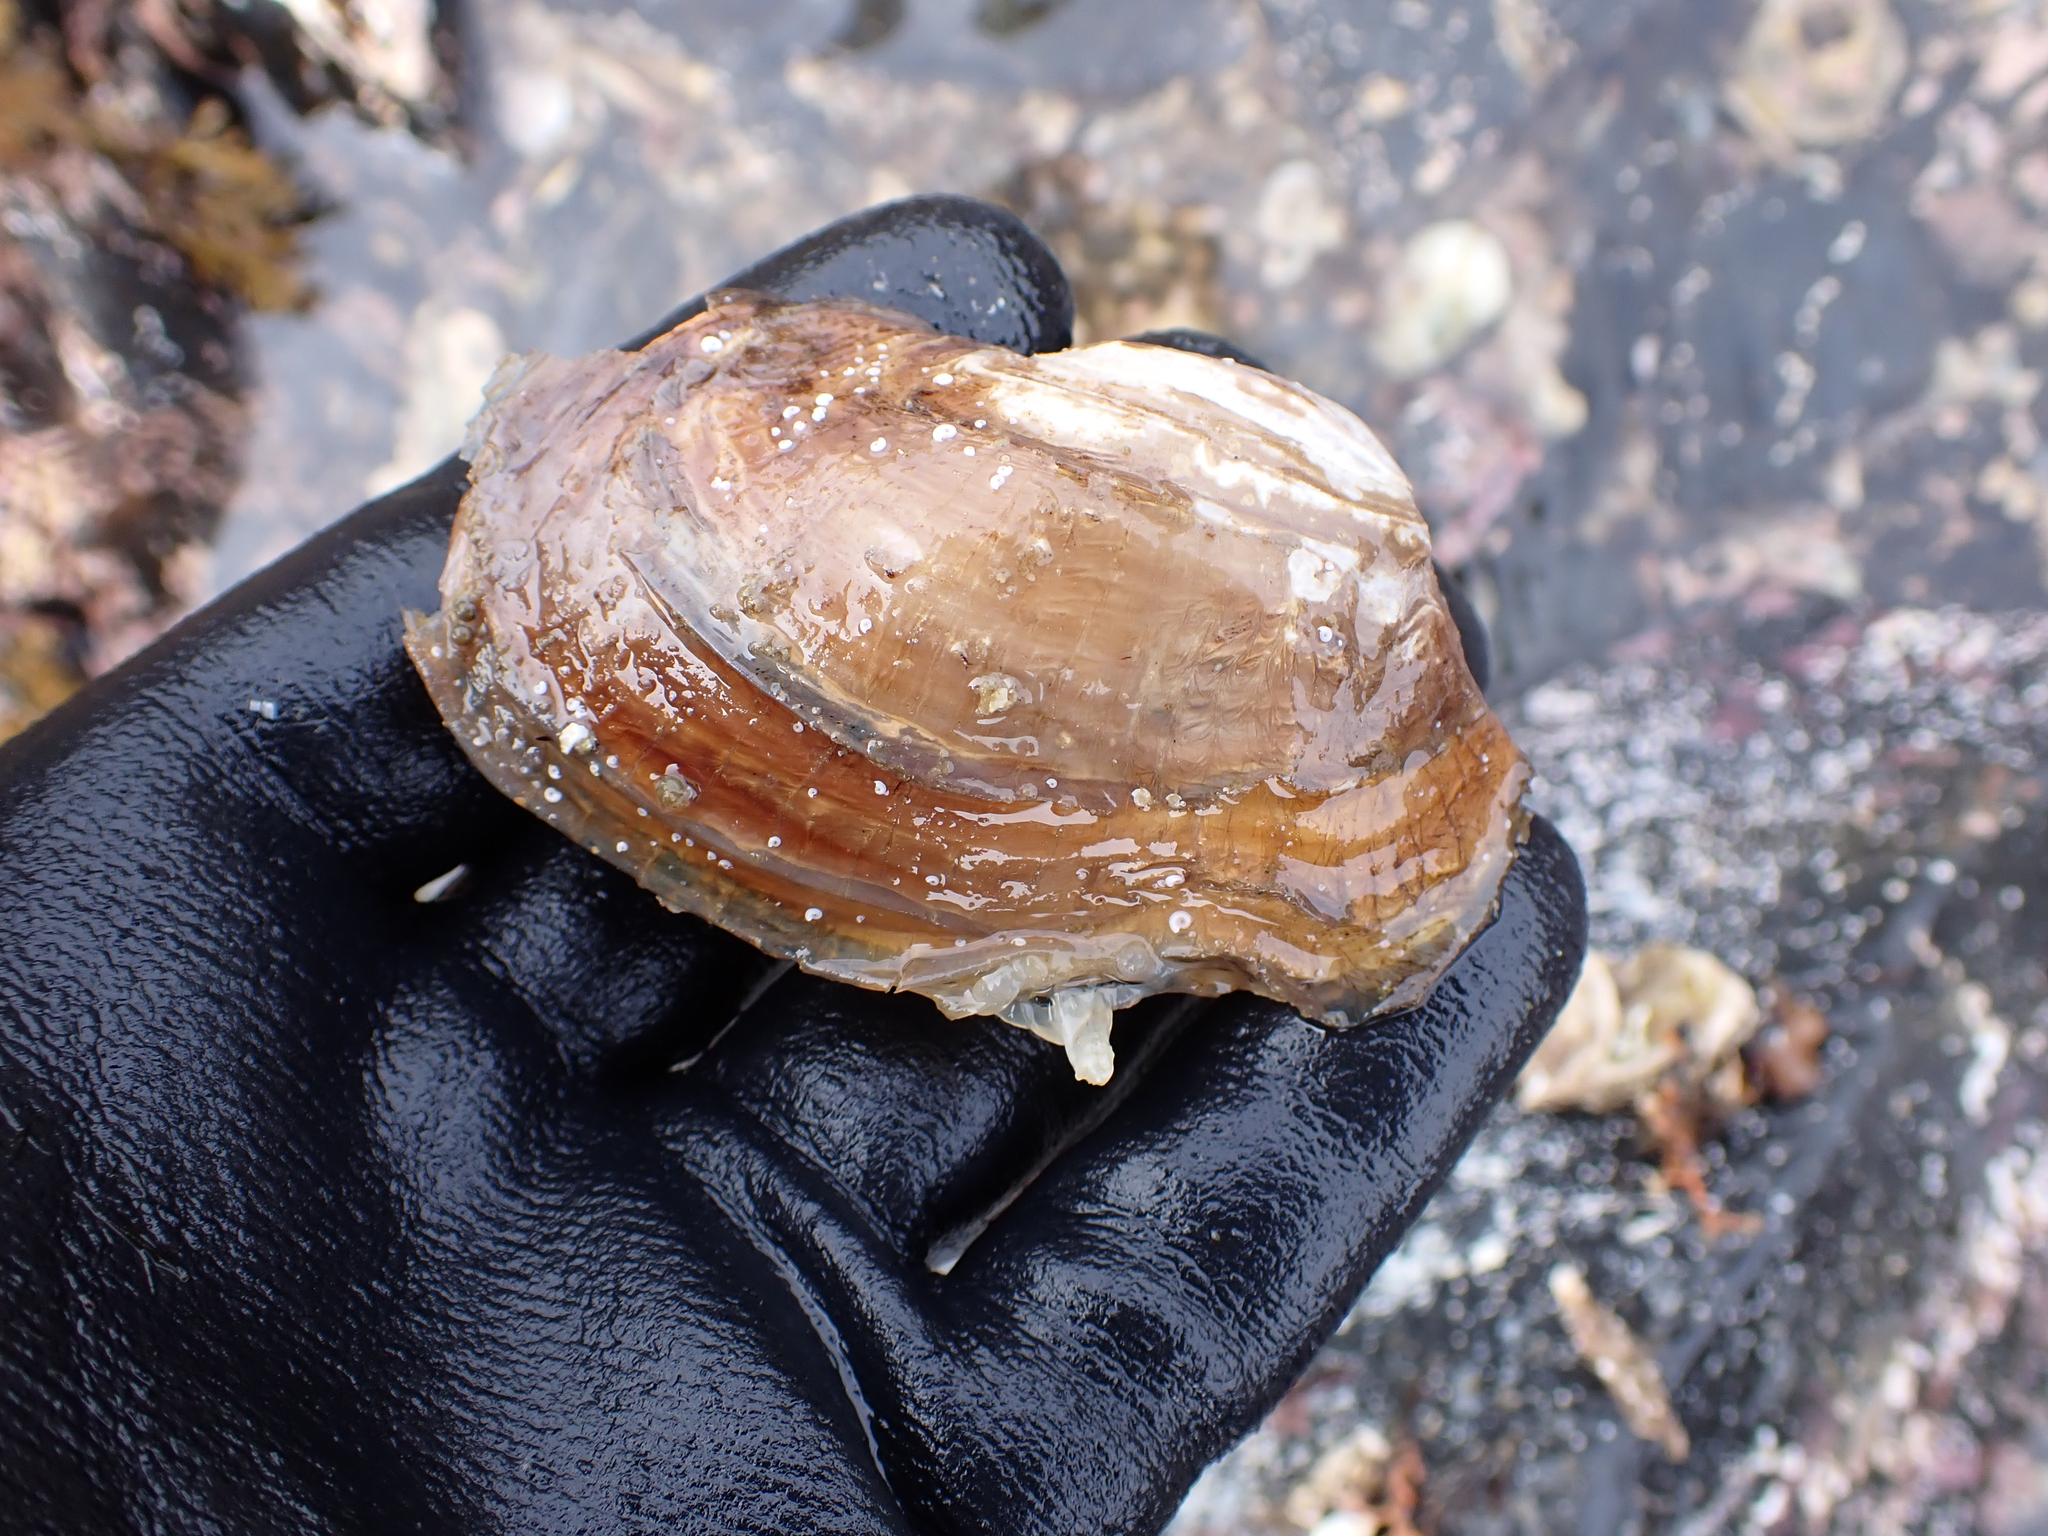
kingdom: Animalia
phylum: Mollusca
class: Bivalvia
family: Lyonsiidae
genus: Entodesma
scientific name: Entodesma navicula
